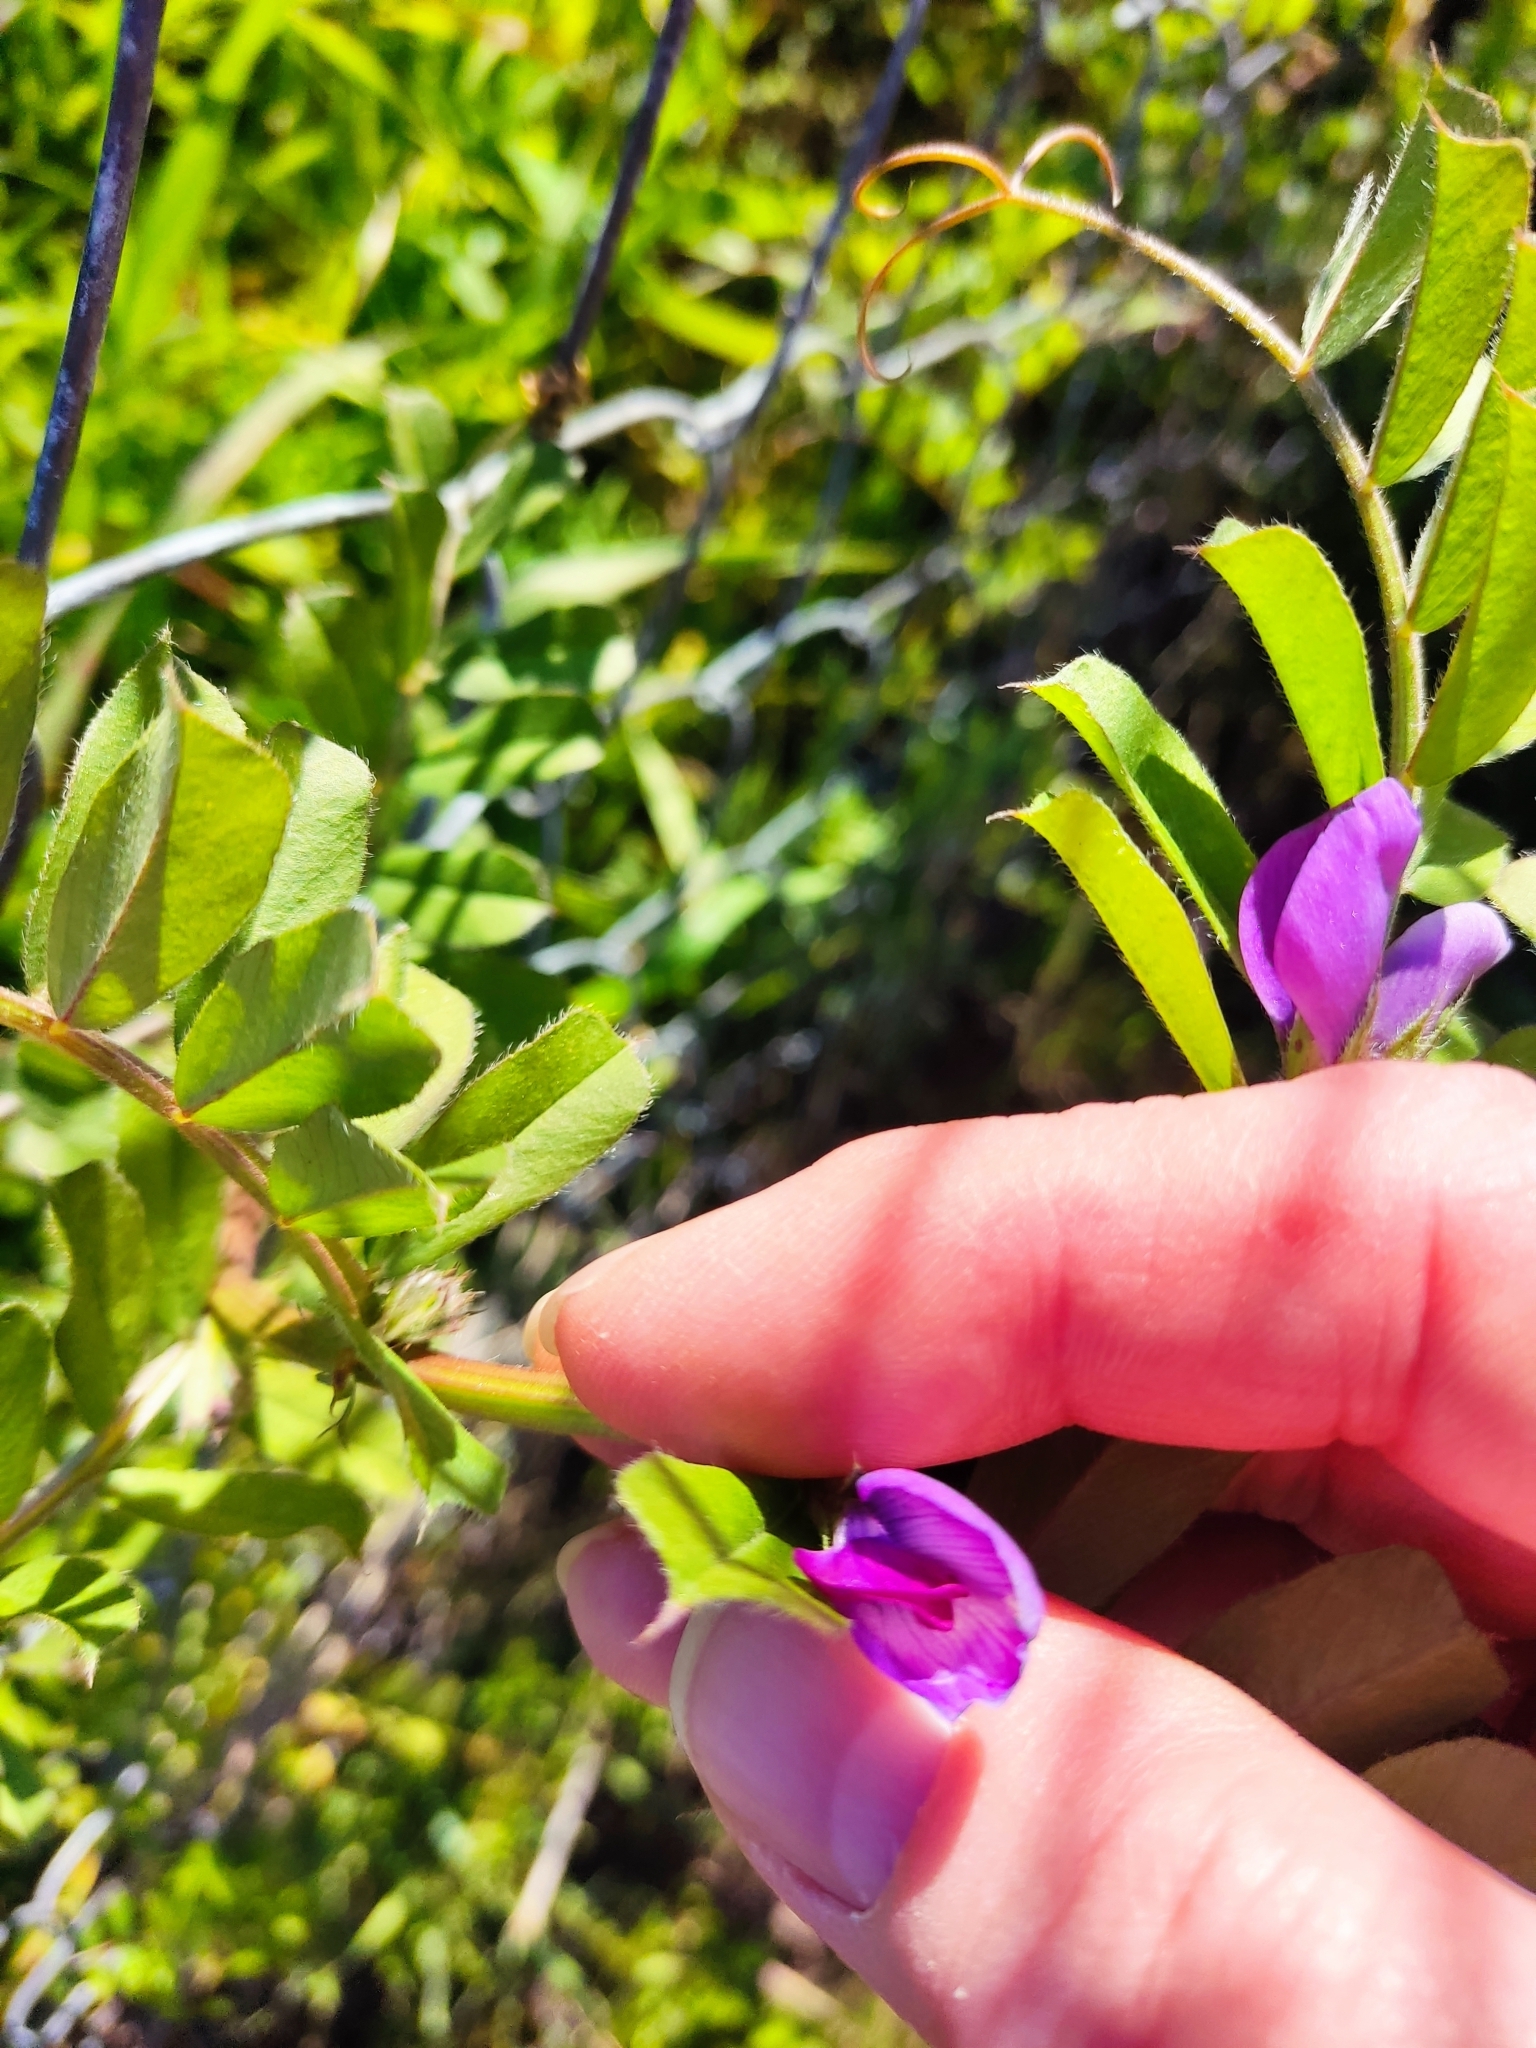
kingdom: Plantae
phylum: Tracheophyta
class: Magnoliopsida
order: Fabales
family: Fabaceae
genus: Vicia
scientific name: Vicia sativa
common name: Garden vetch
